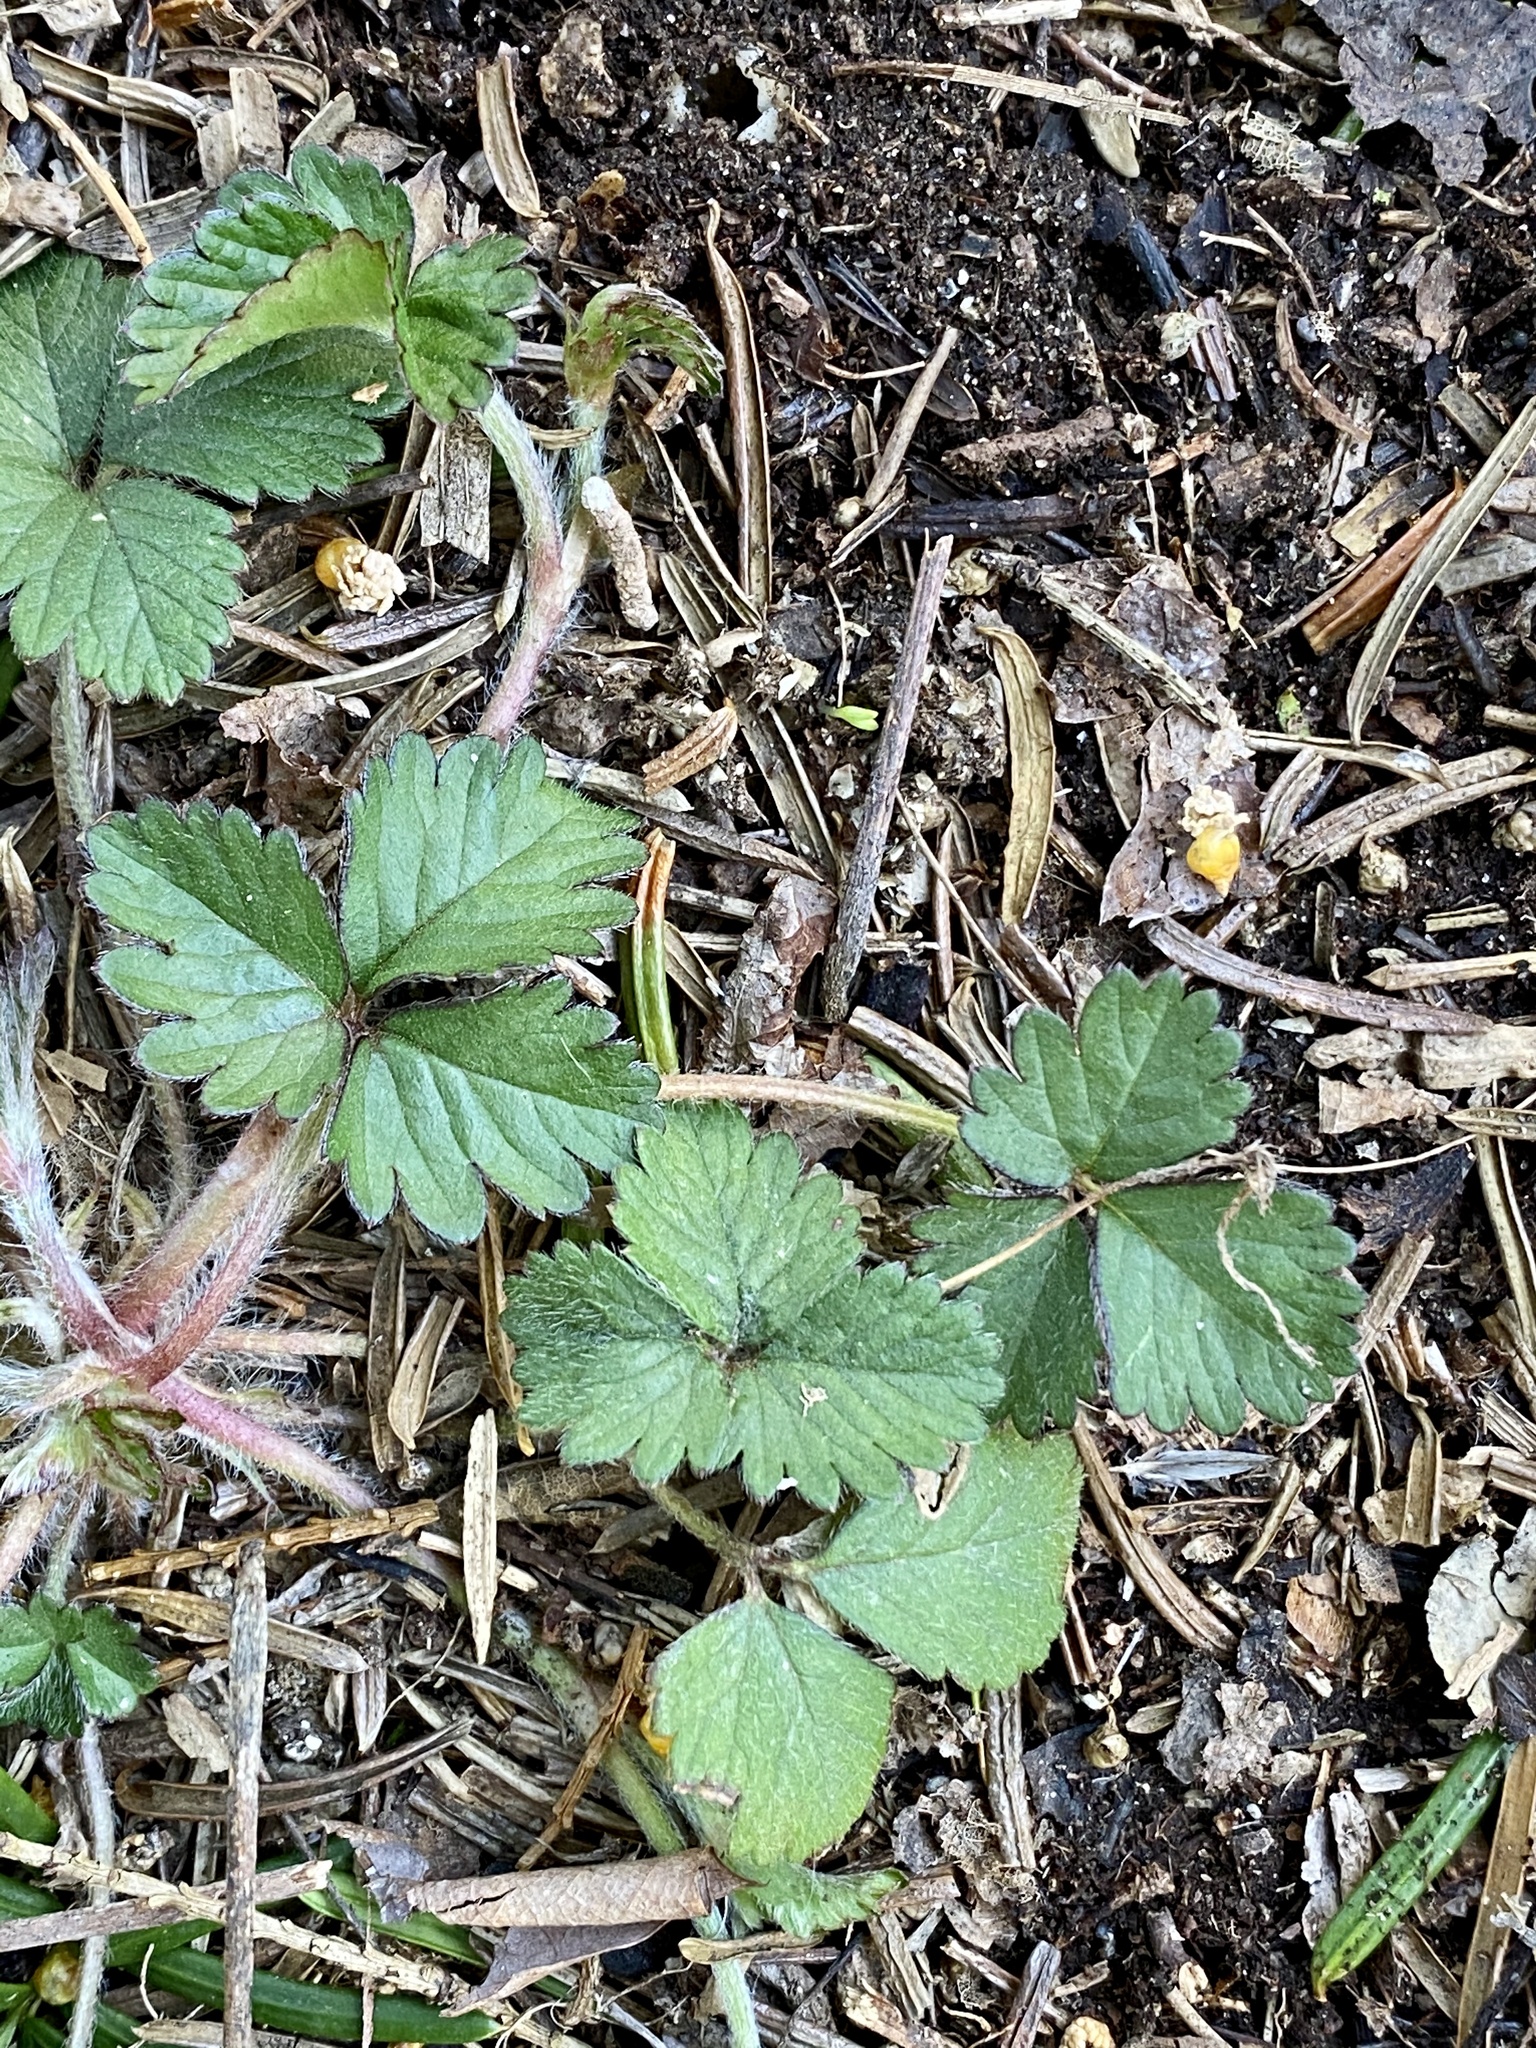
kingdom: Plantae
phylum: Tracheophyta
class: Magnoliopsida
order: Rosales
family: Rosaceae
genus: Potentilla
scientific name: Potentilla indica
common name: Yellow-flowered strawberry
